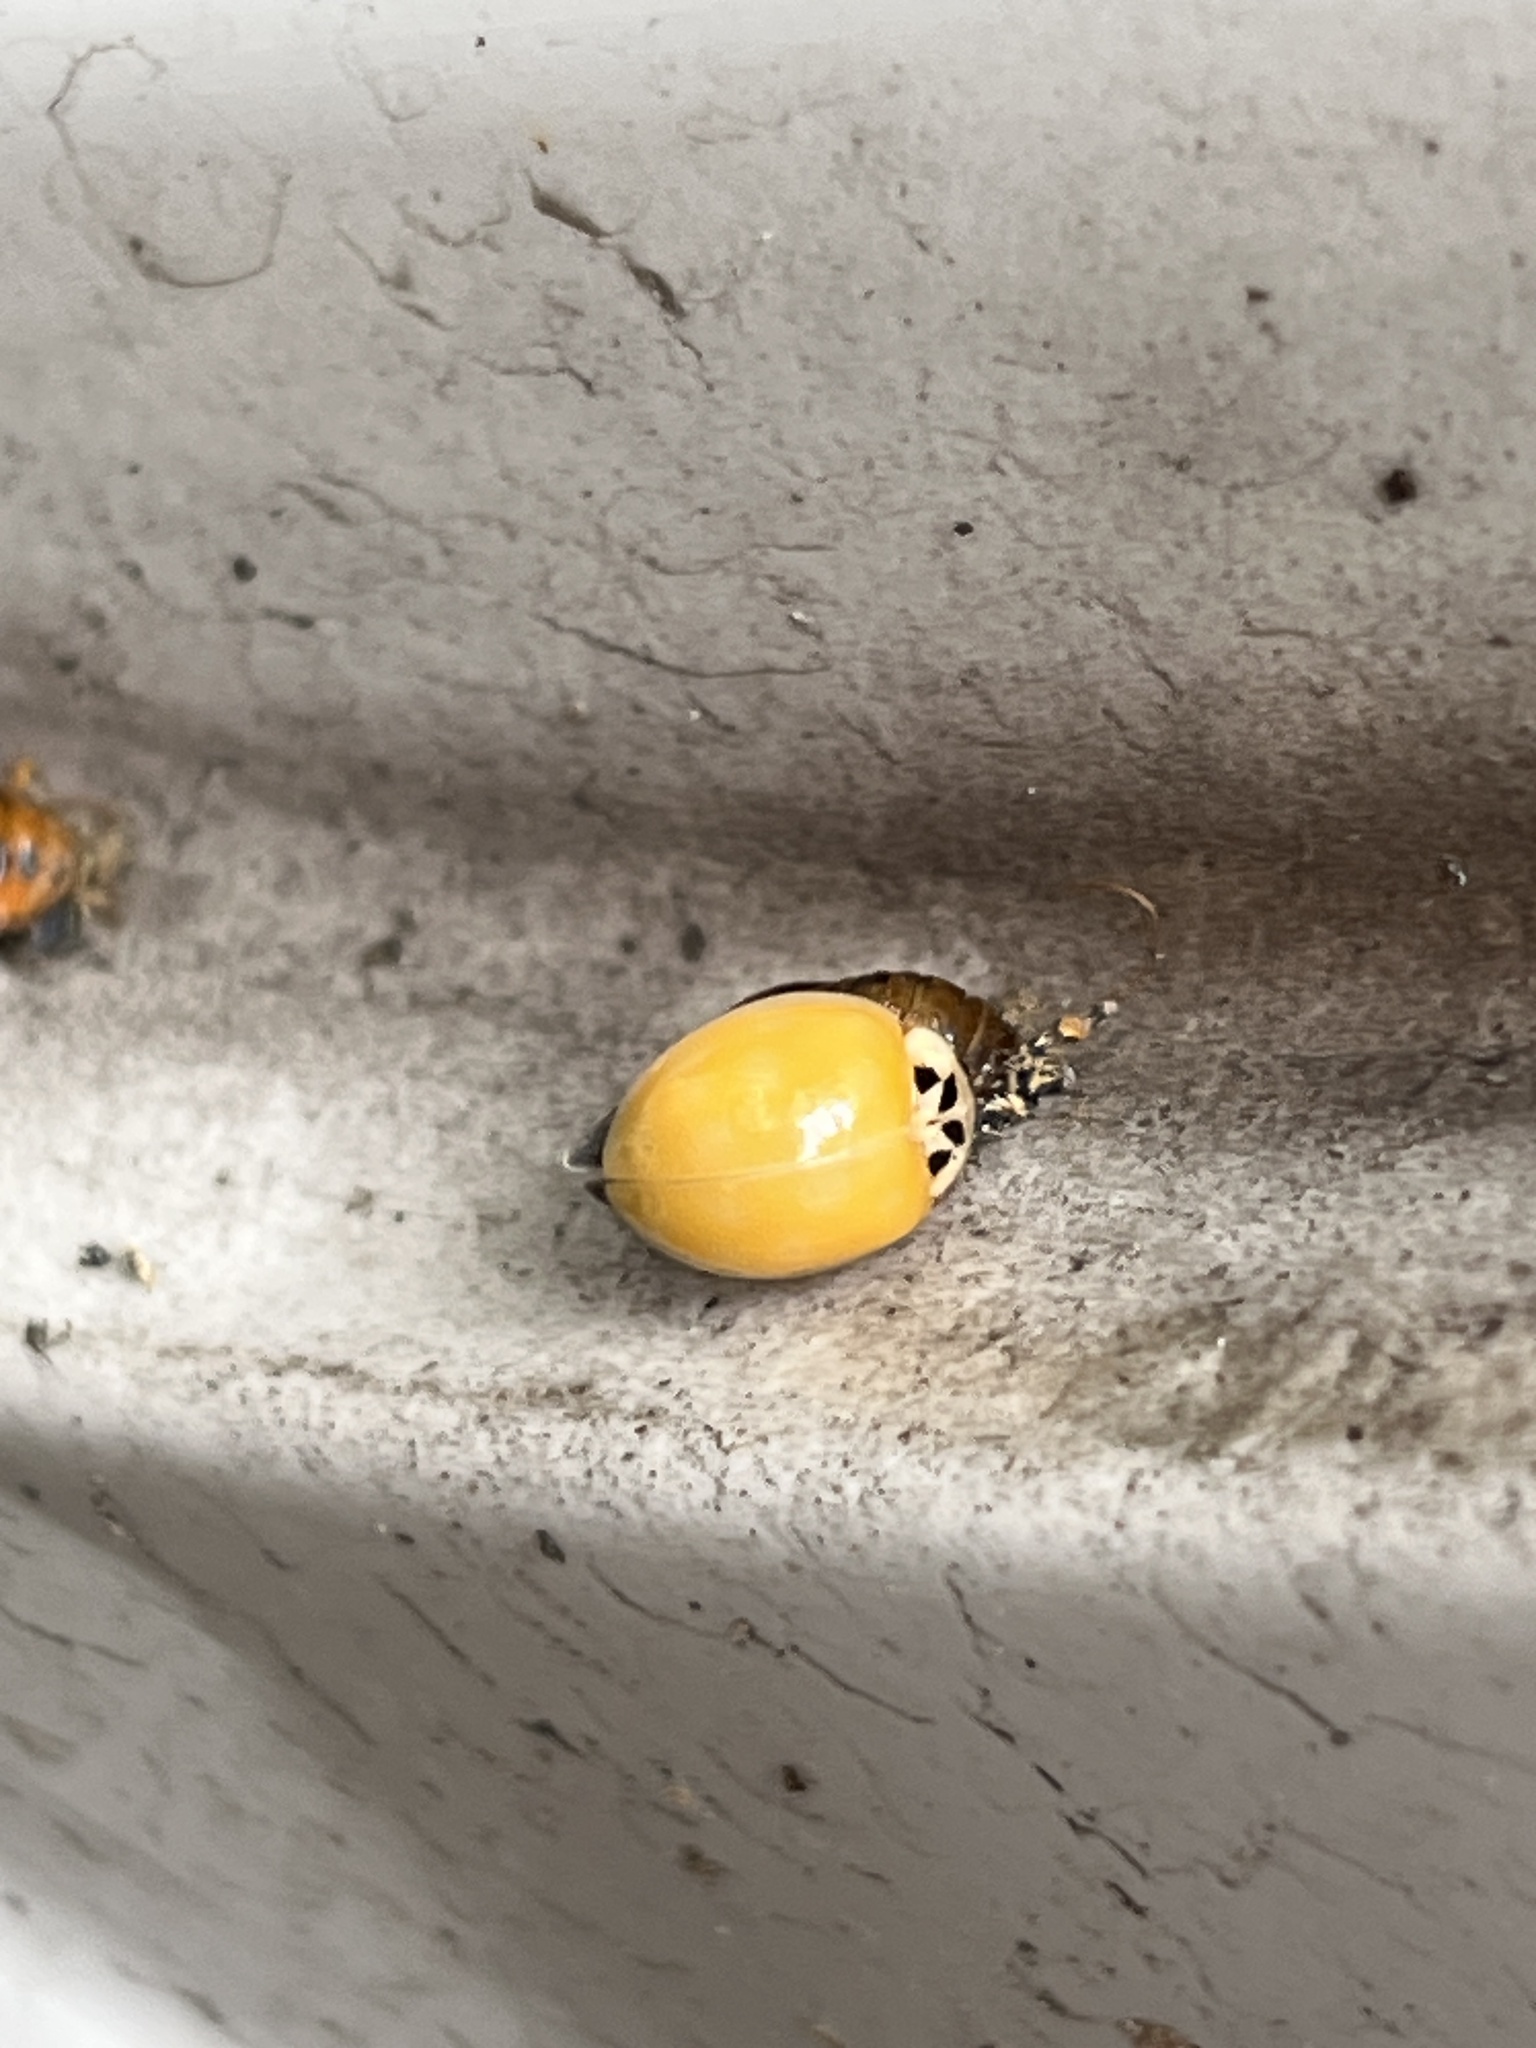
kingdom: Animalia
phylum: Arthropoda
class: Insecta
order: Coleoptera
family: Coccinellidae
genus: Harmonia
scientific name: Harmonia axyridis
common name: Harlequin ladybird
